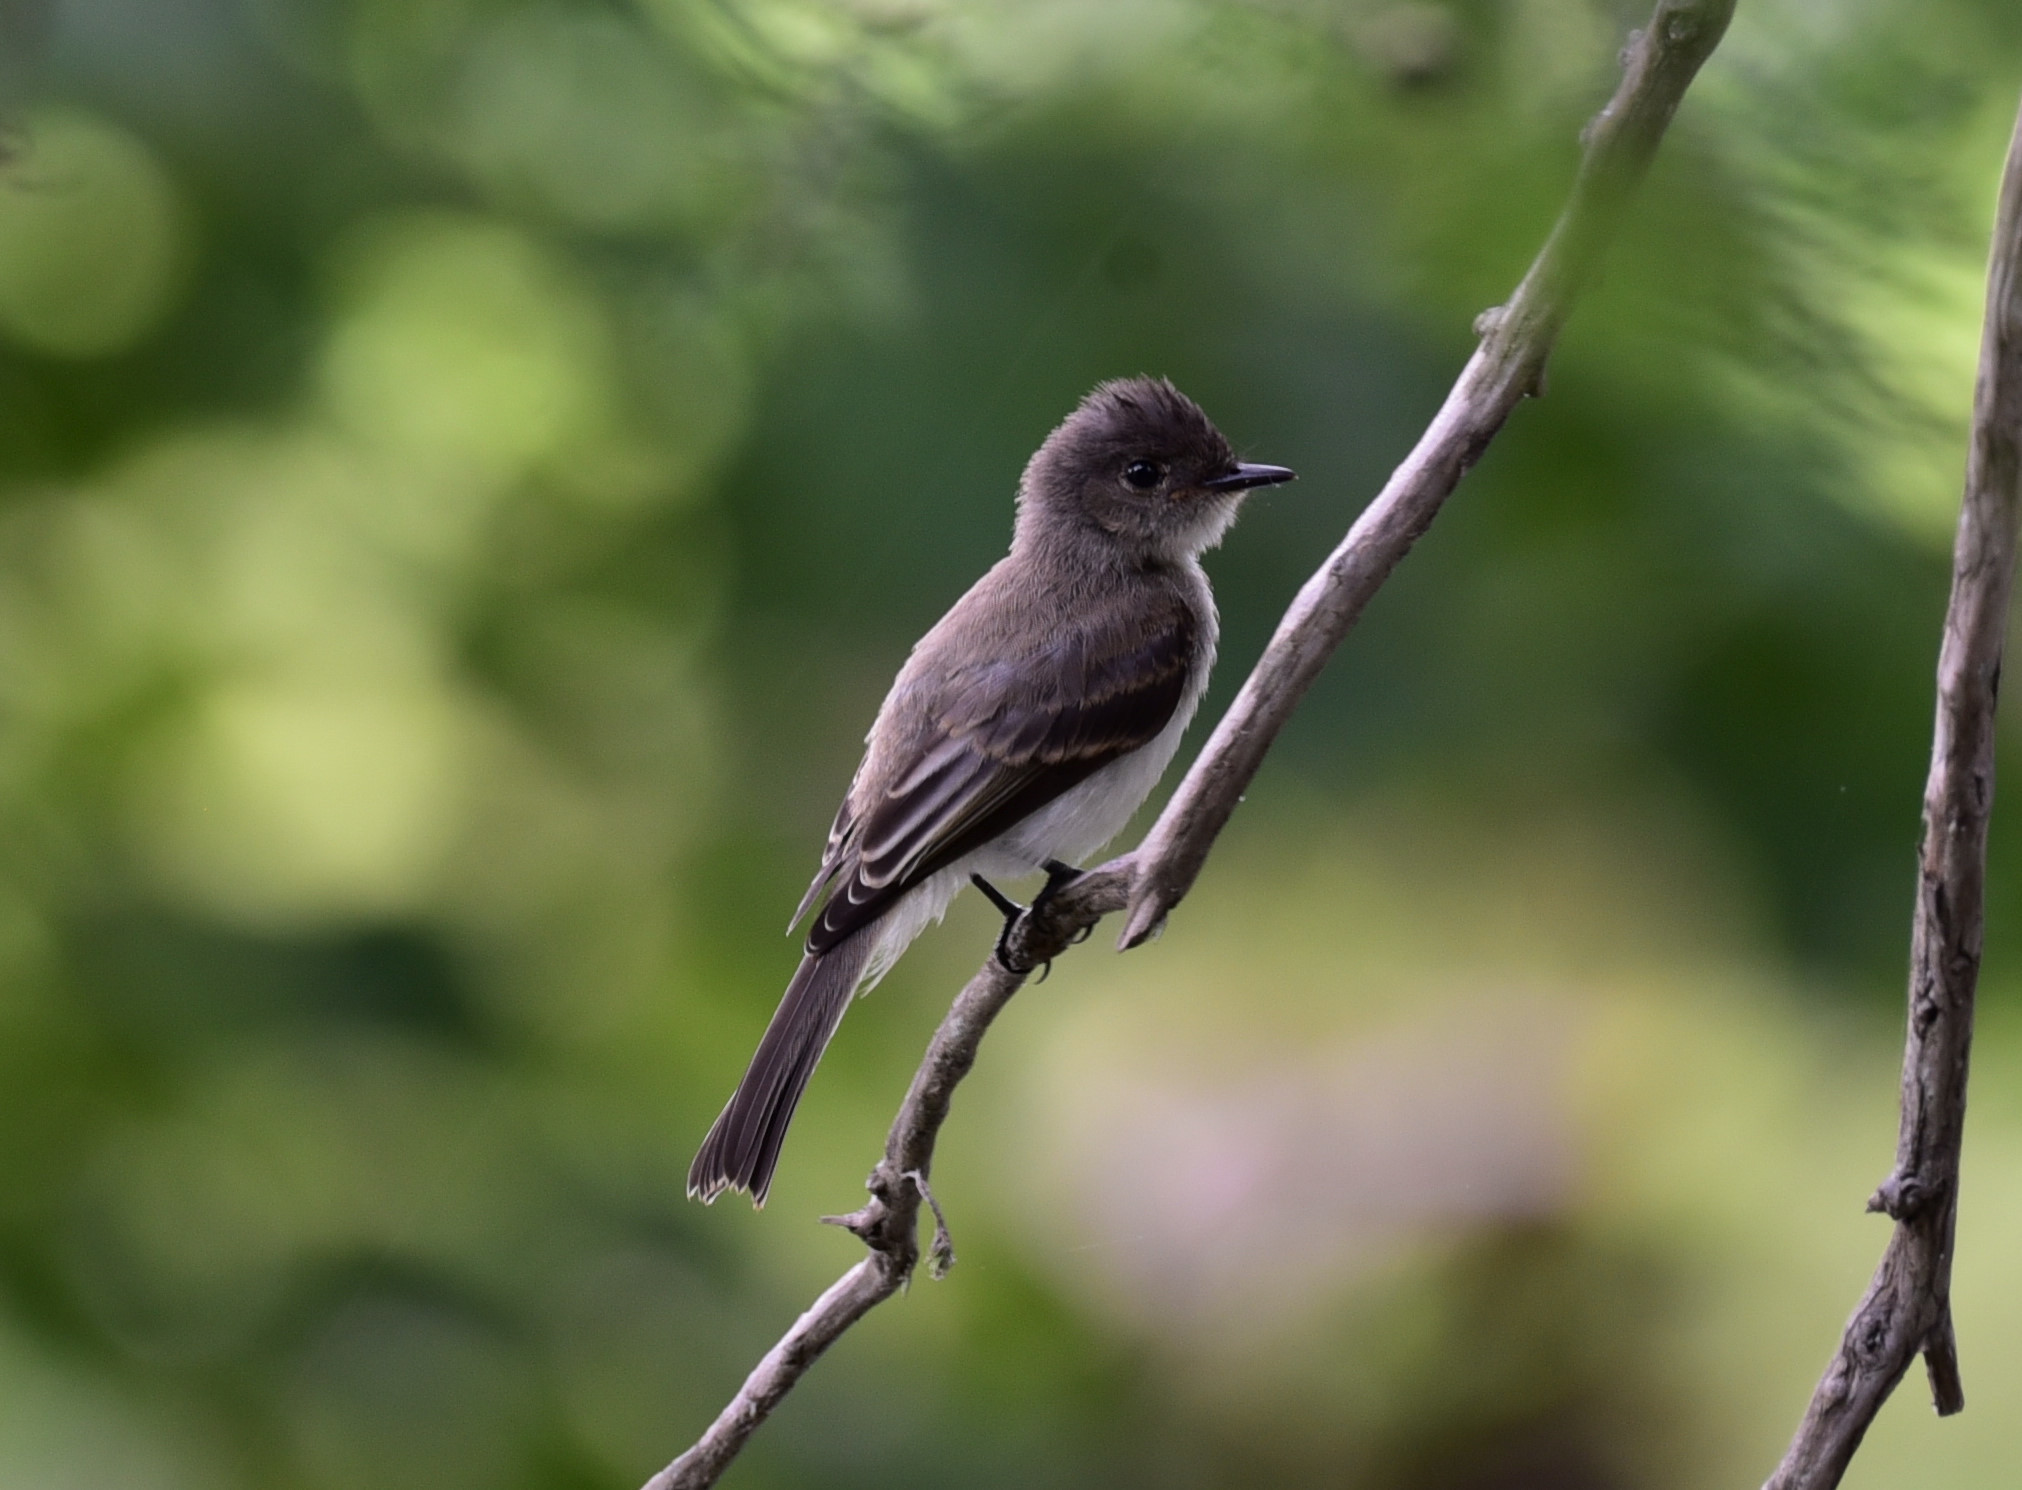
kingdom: Animalia
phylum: Chordata
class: Aves
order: Passeriformes
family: Tyrannidae
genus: Sayornis
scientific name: Sayornis phoebe
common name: Eastern phoebe
